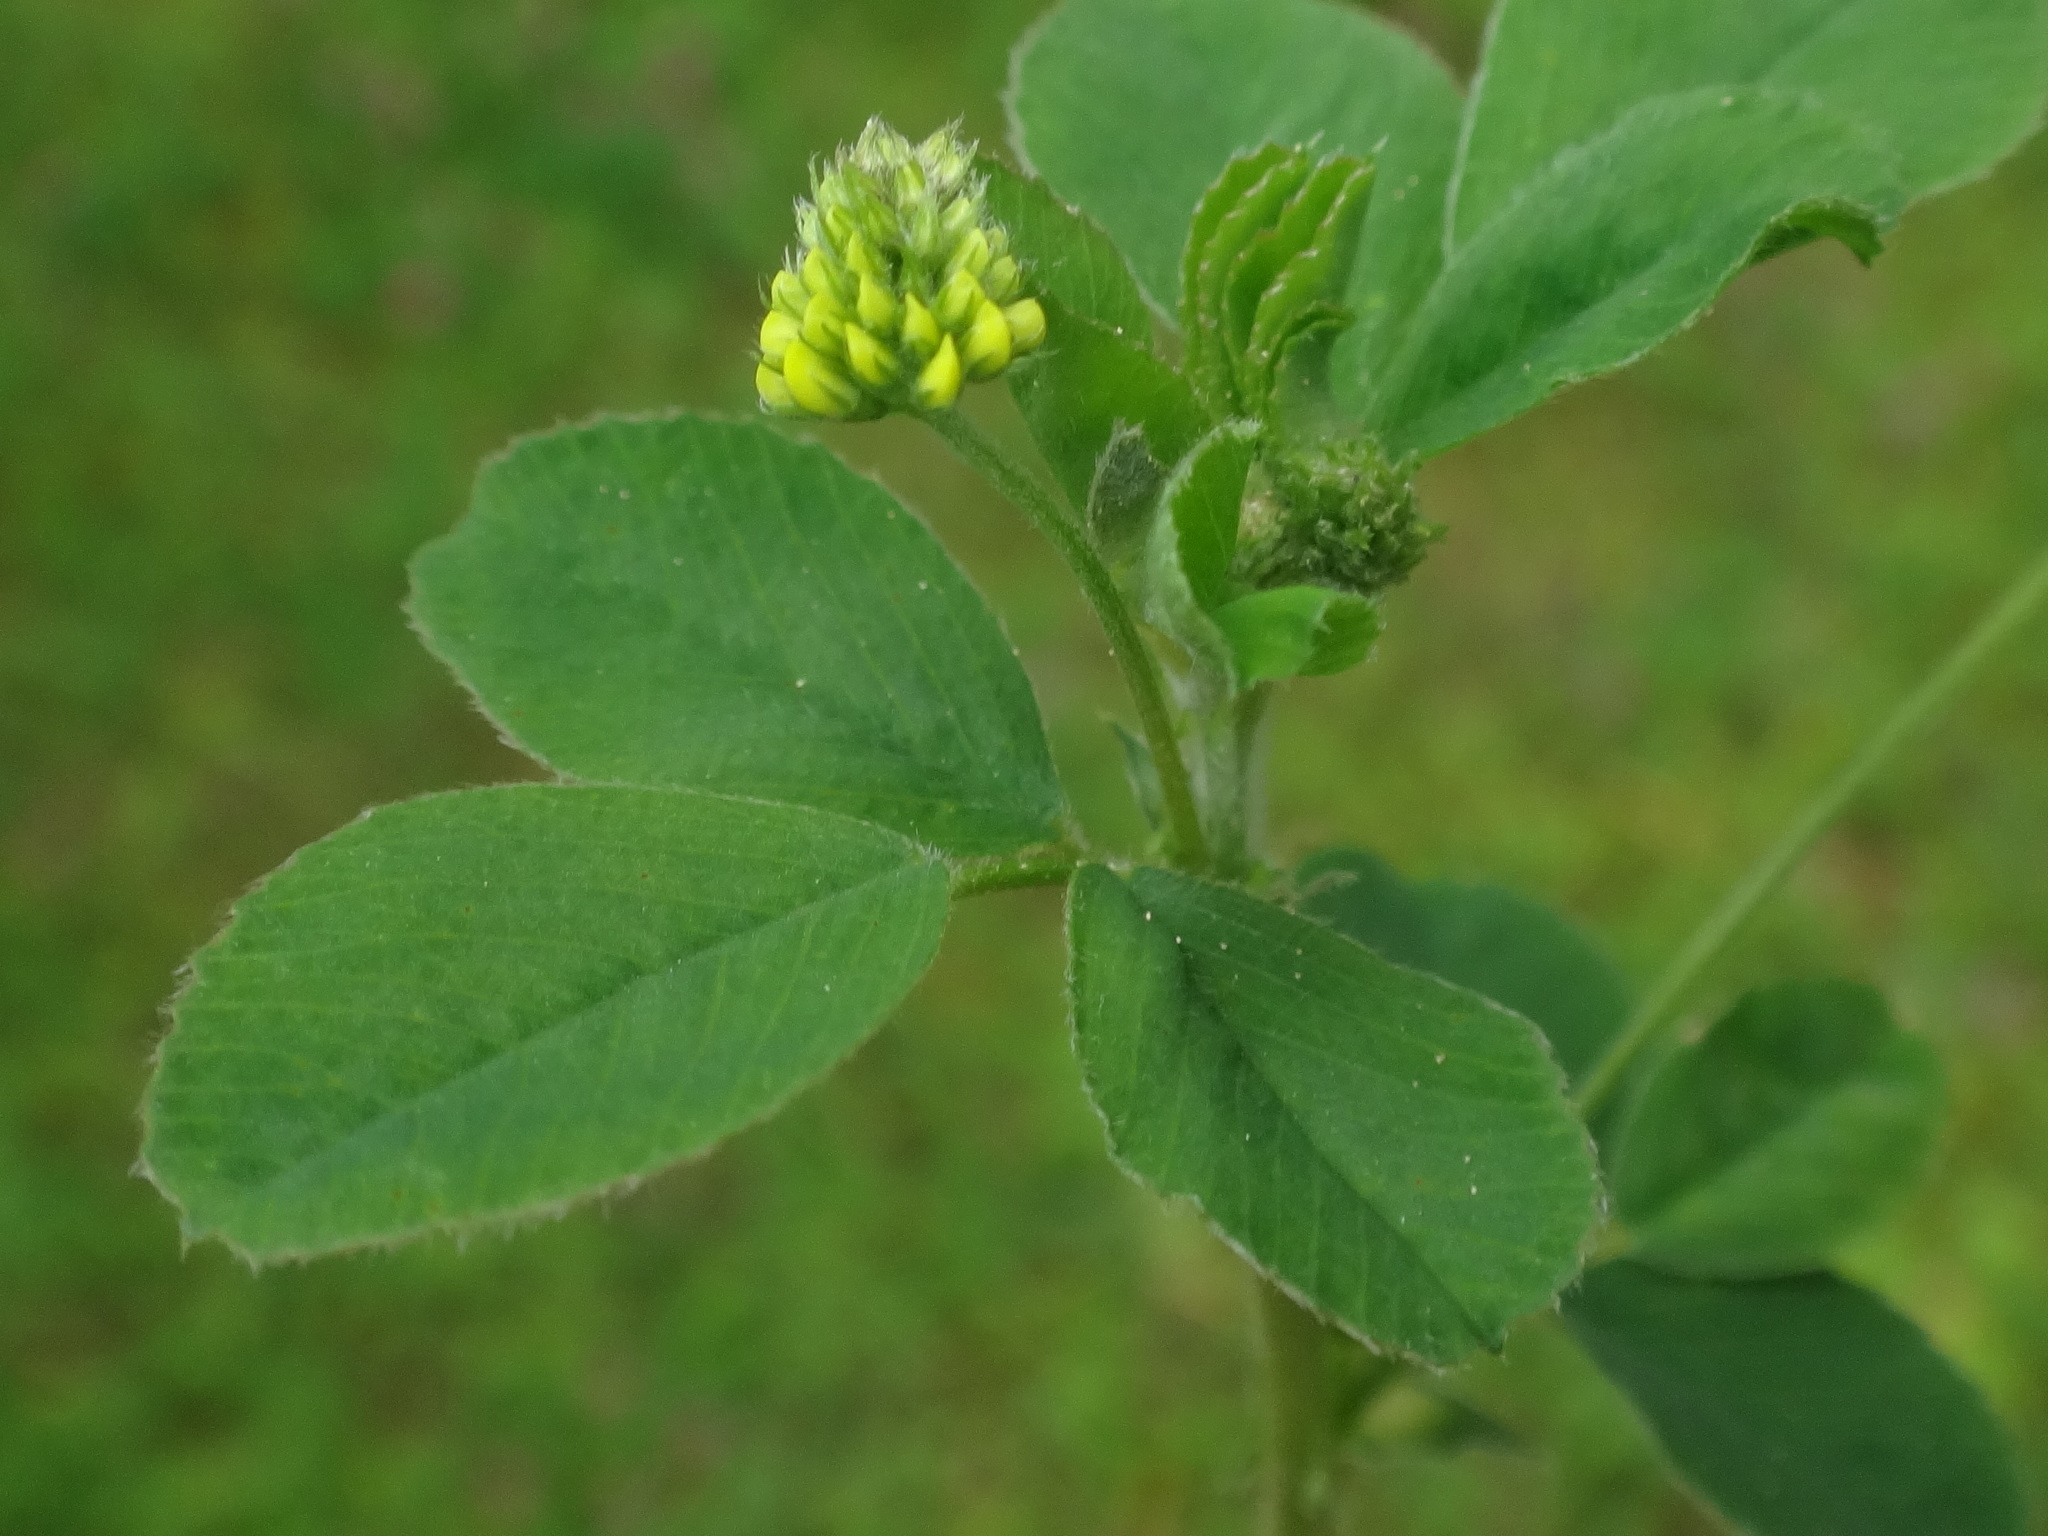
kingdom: Plantae
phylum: Tracheophyta
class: Magnoliopsida
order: Fabales
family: Fabaceae
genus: Medicago
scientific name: Medicago lupulina
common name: Black medick
